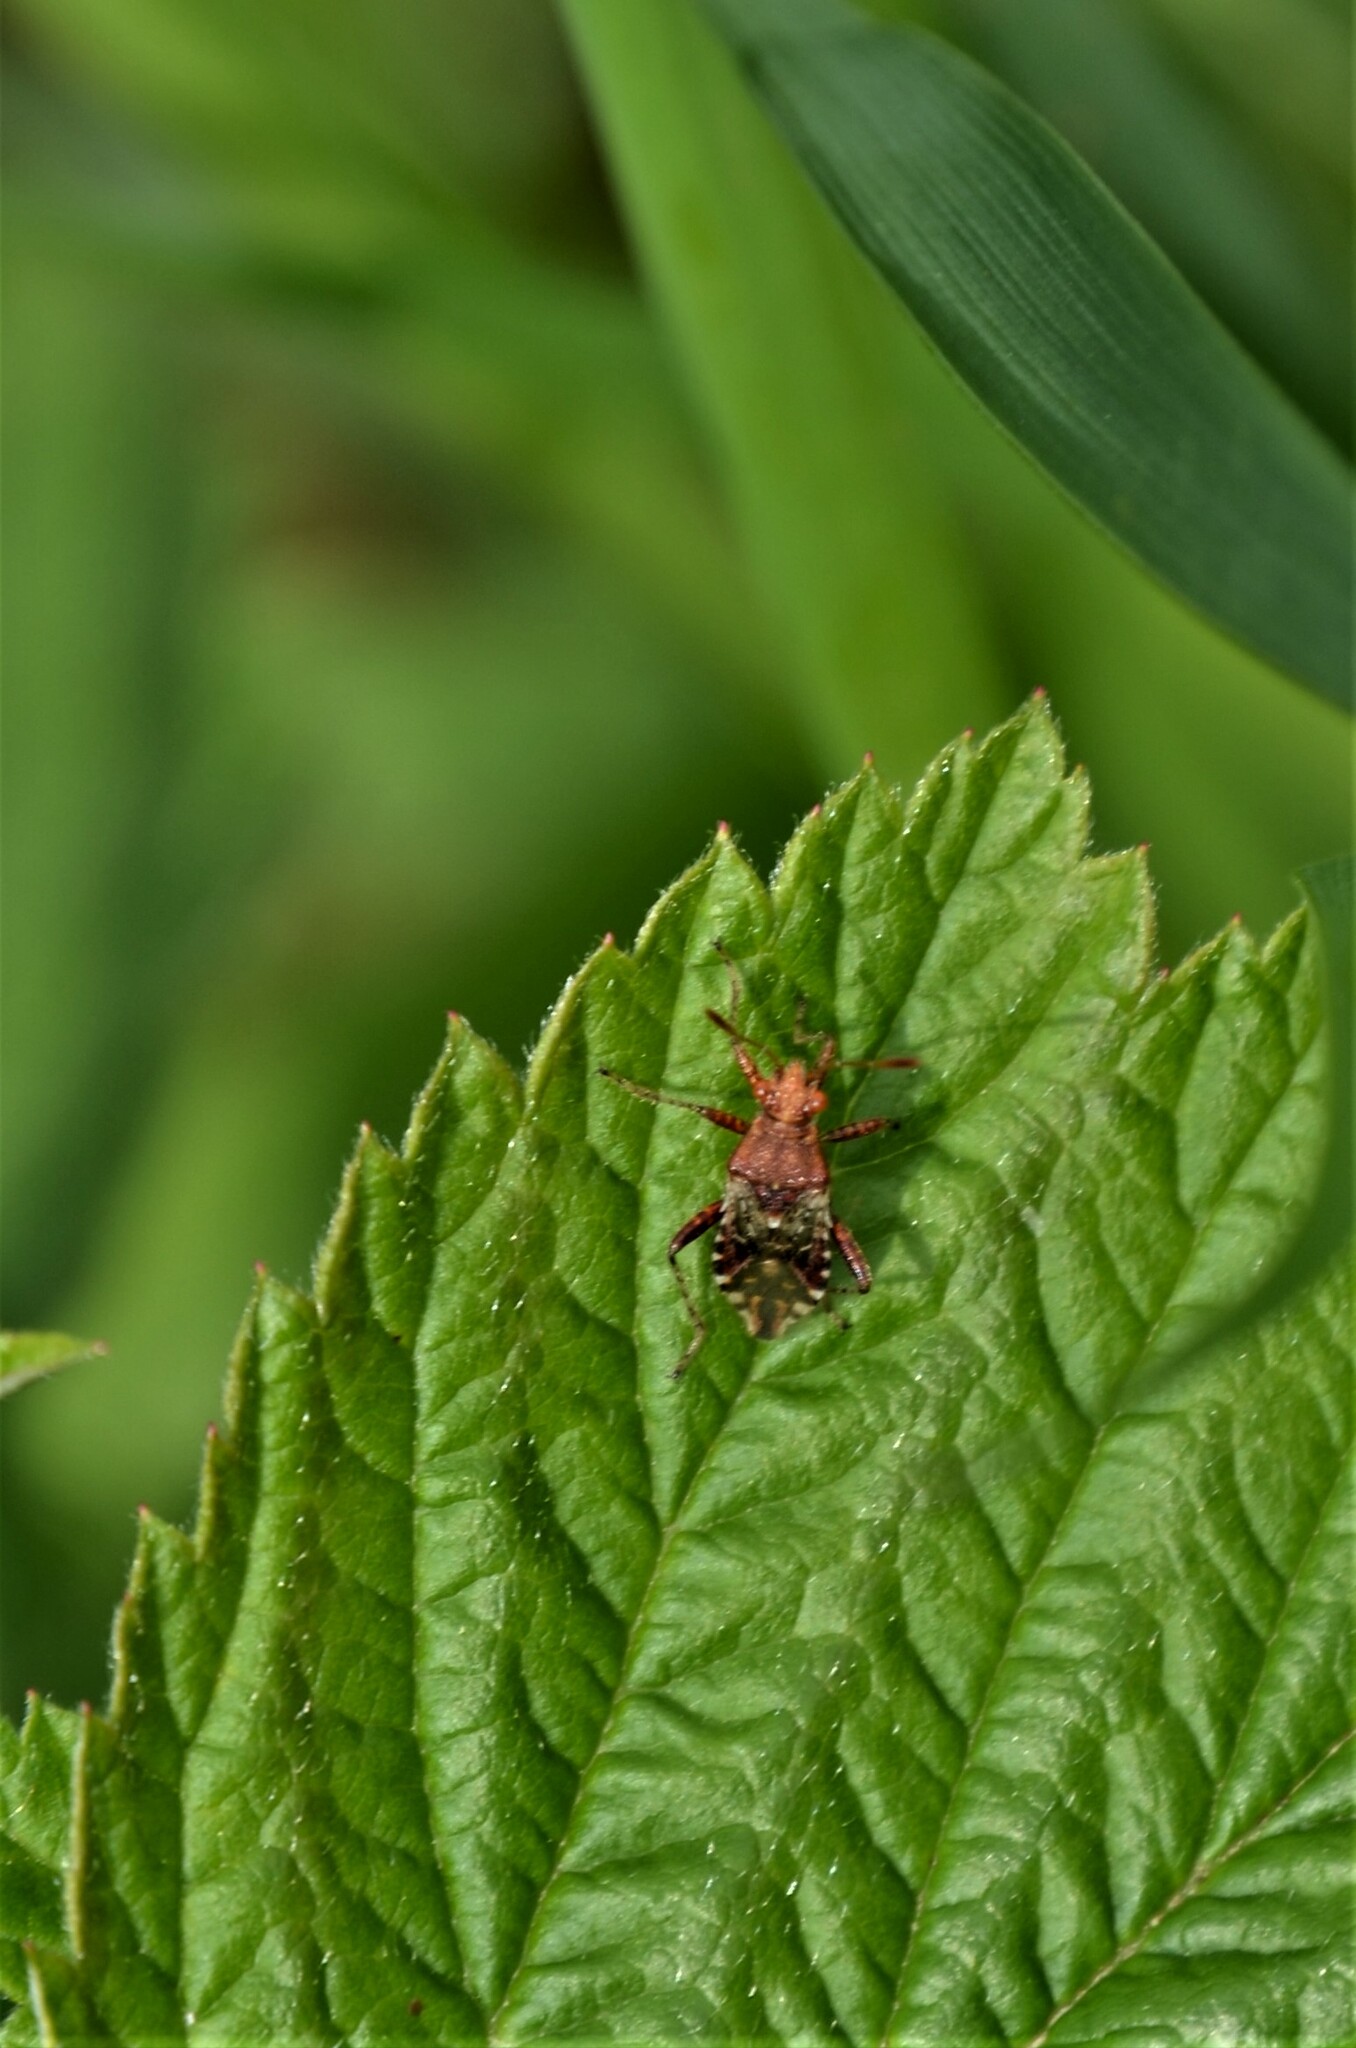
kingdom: Animalia
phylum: Arthropoda
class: Insecta
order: Hemiptera
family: Rhopalidae
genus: Rhopalus
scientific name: Rhopalus subrufus
